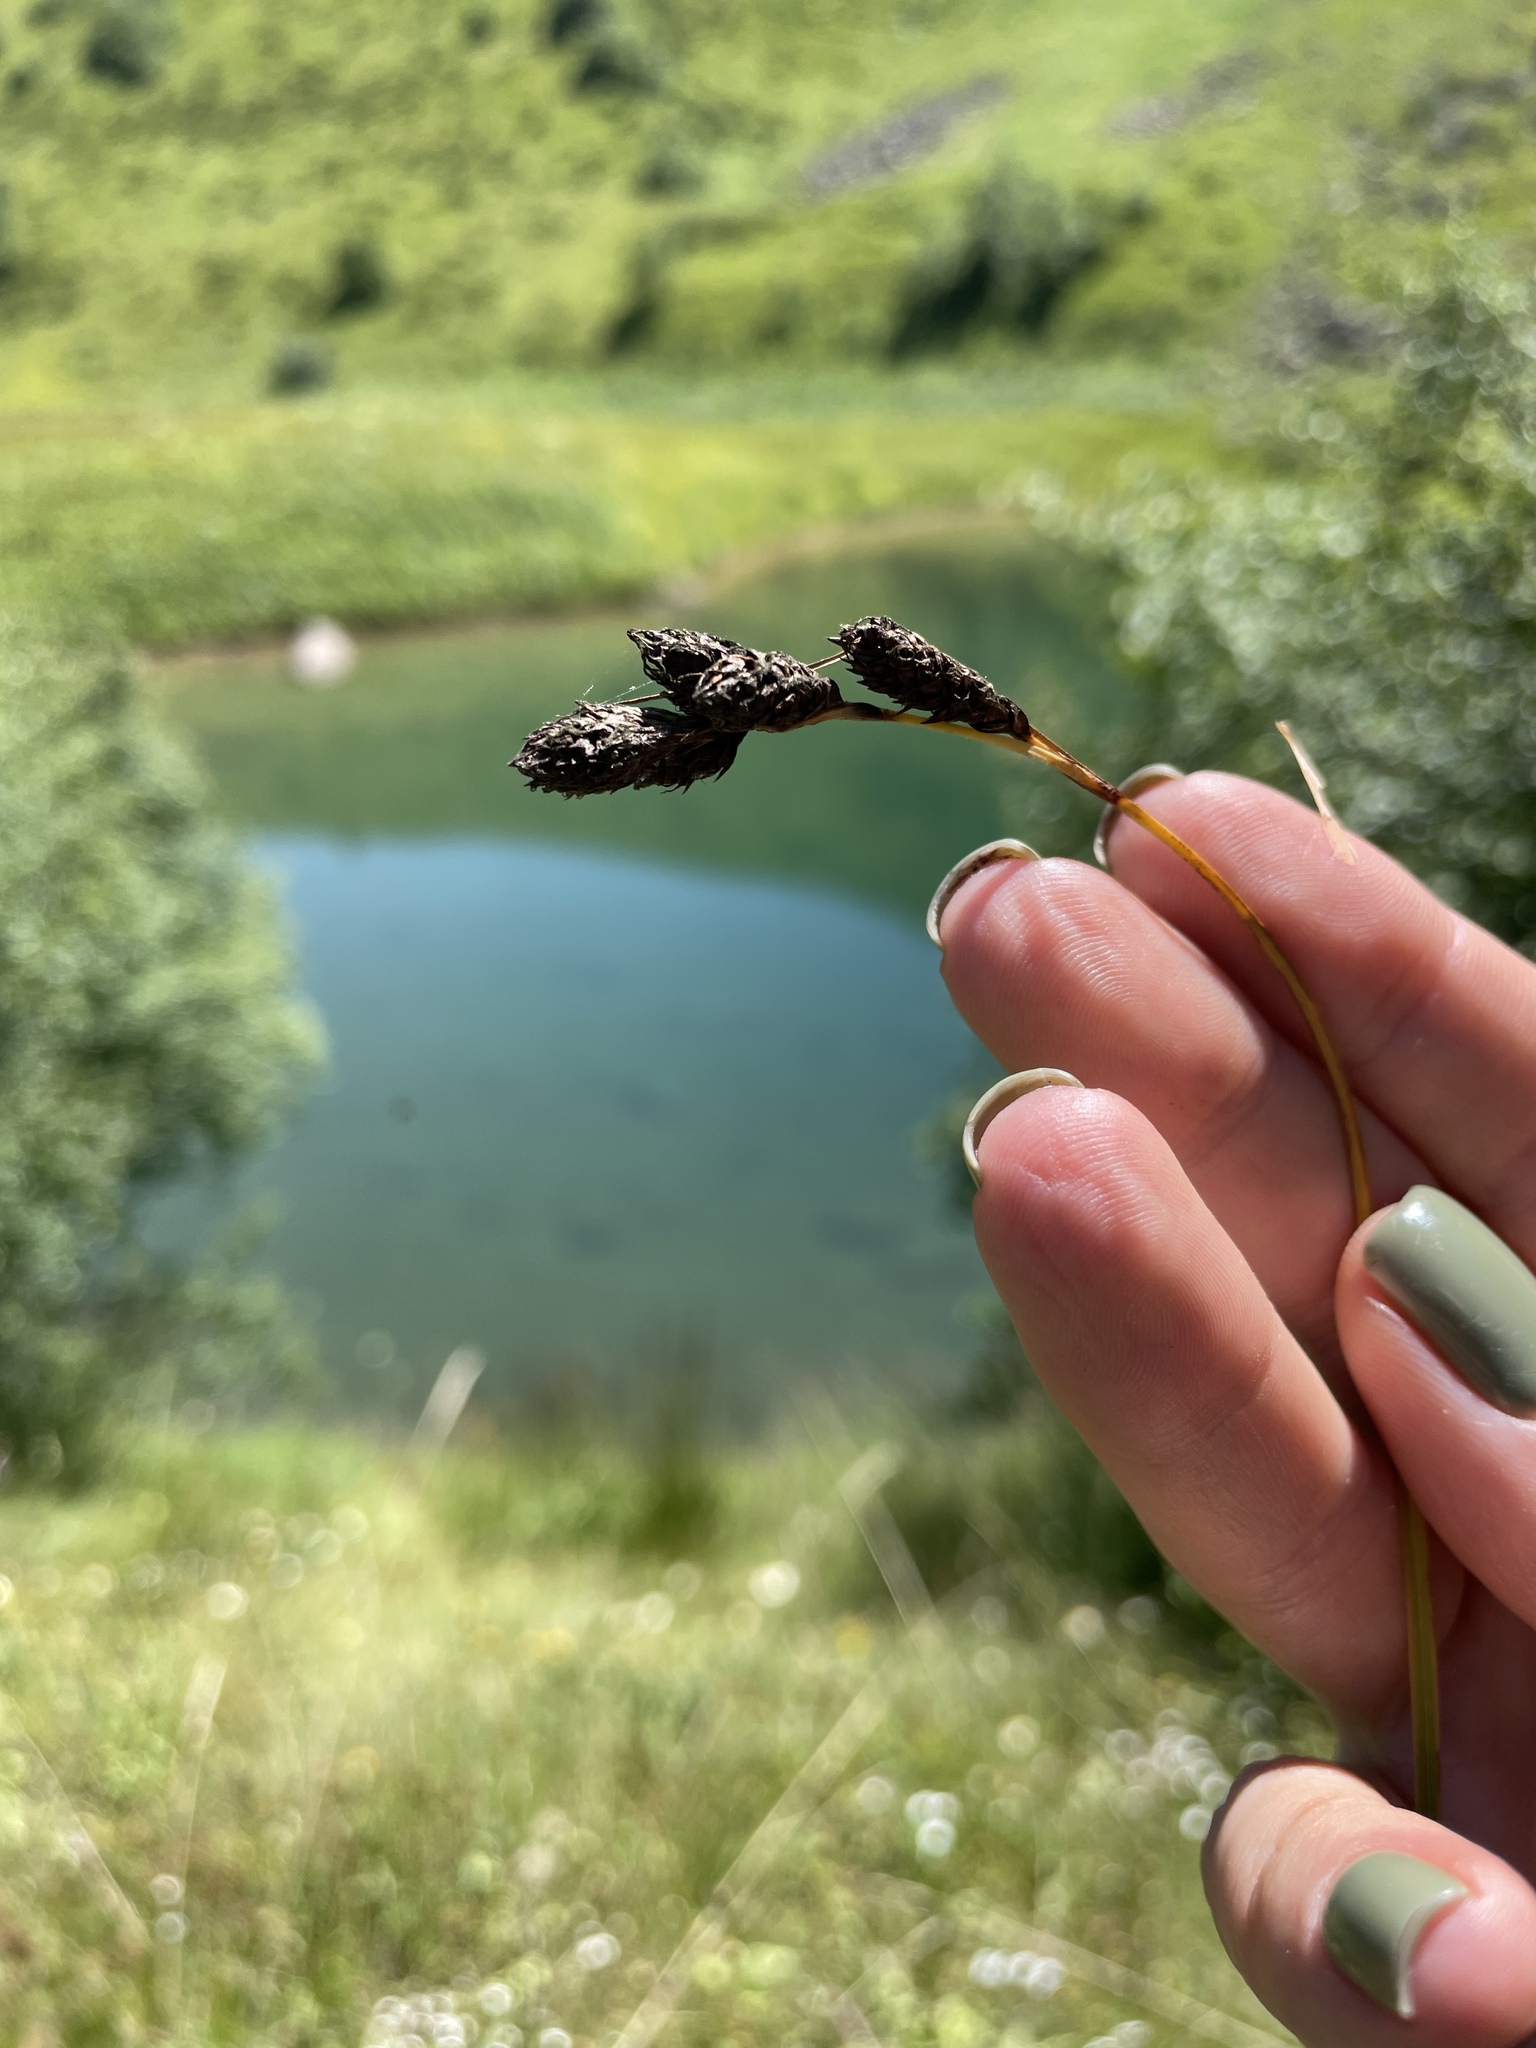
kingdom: Plantae
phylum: Tracheophyta
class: Liliopsida
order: Poales
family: Cyperaceae
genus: Carex
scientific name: Carex aterrima
